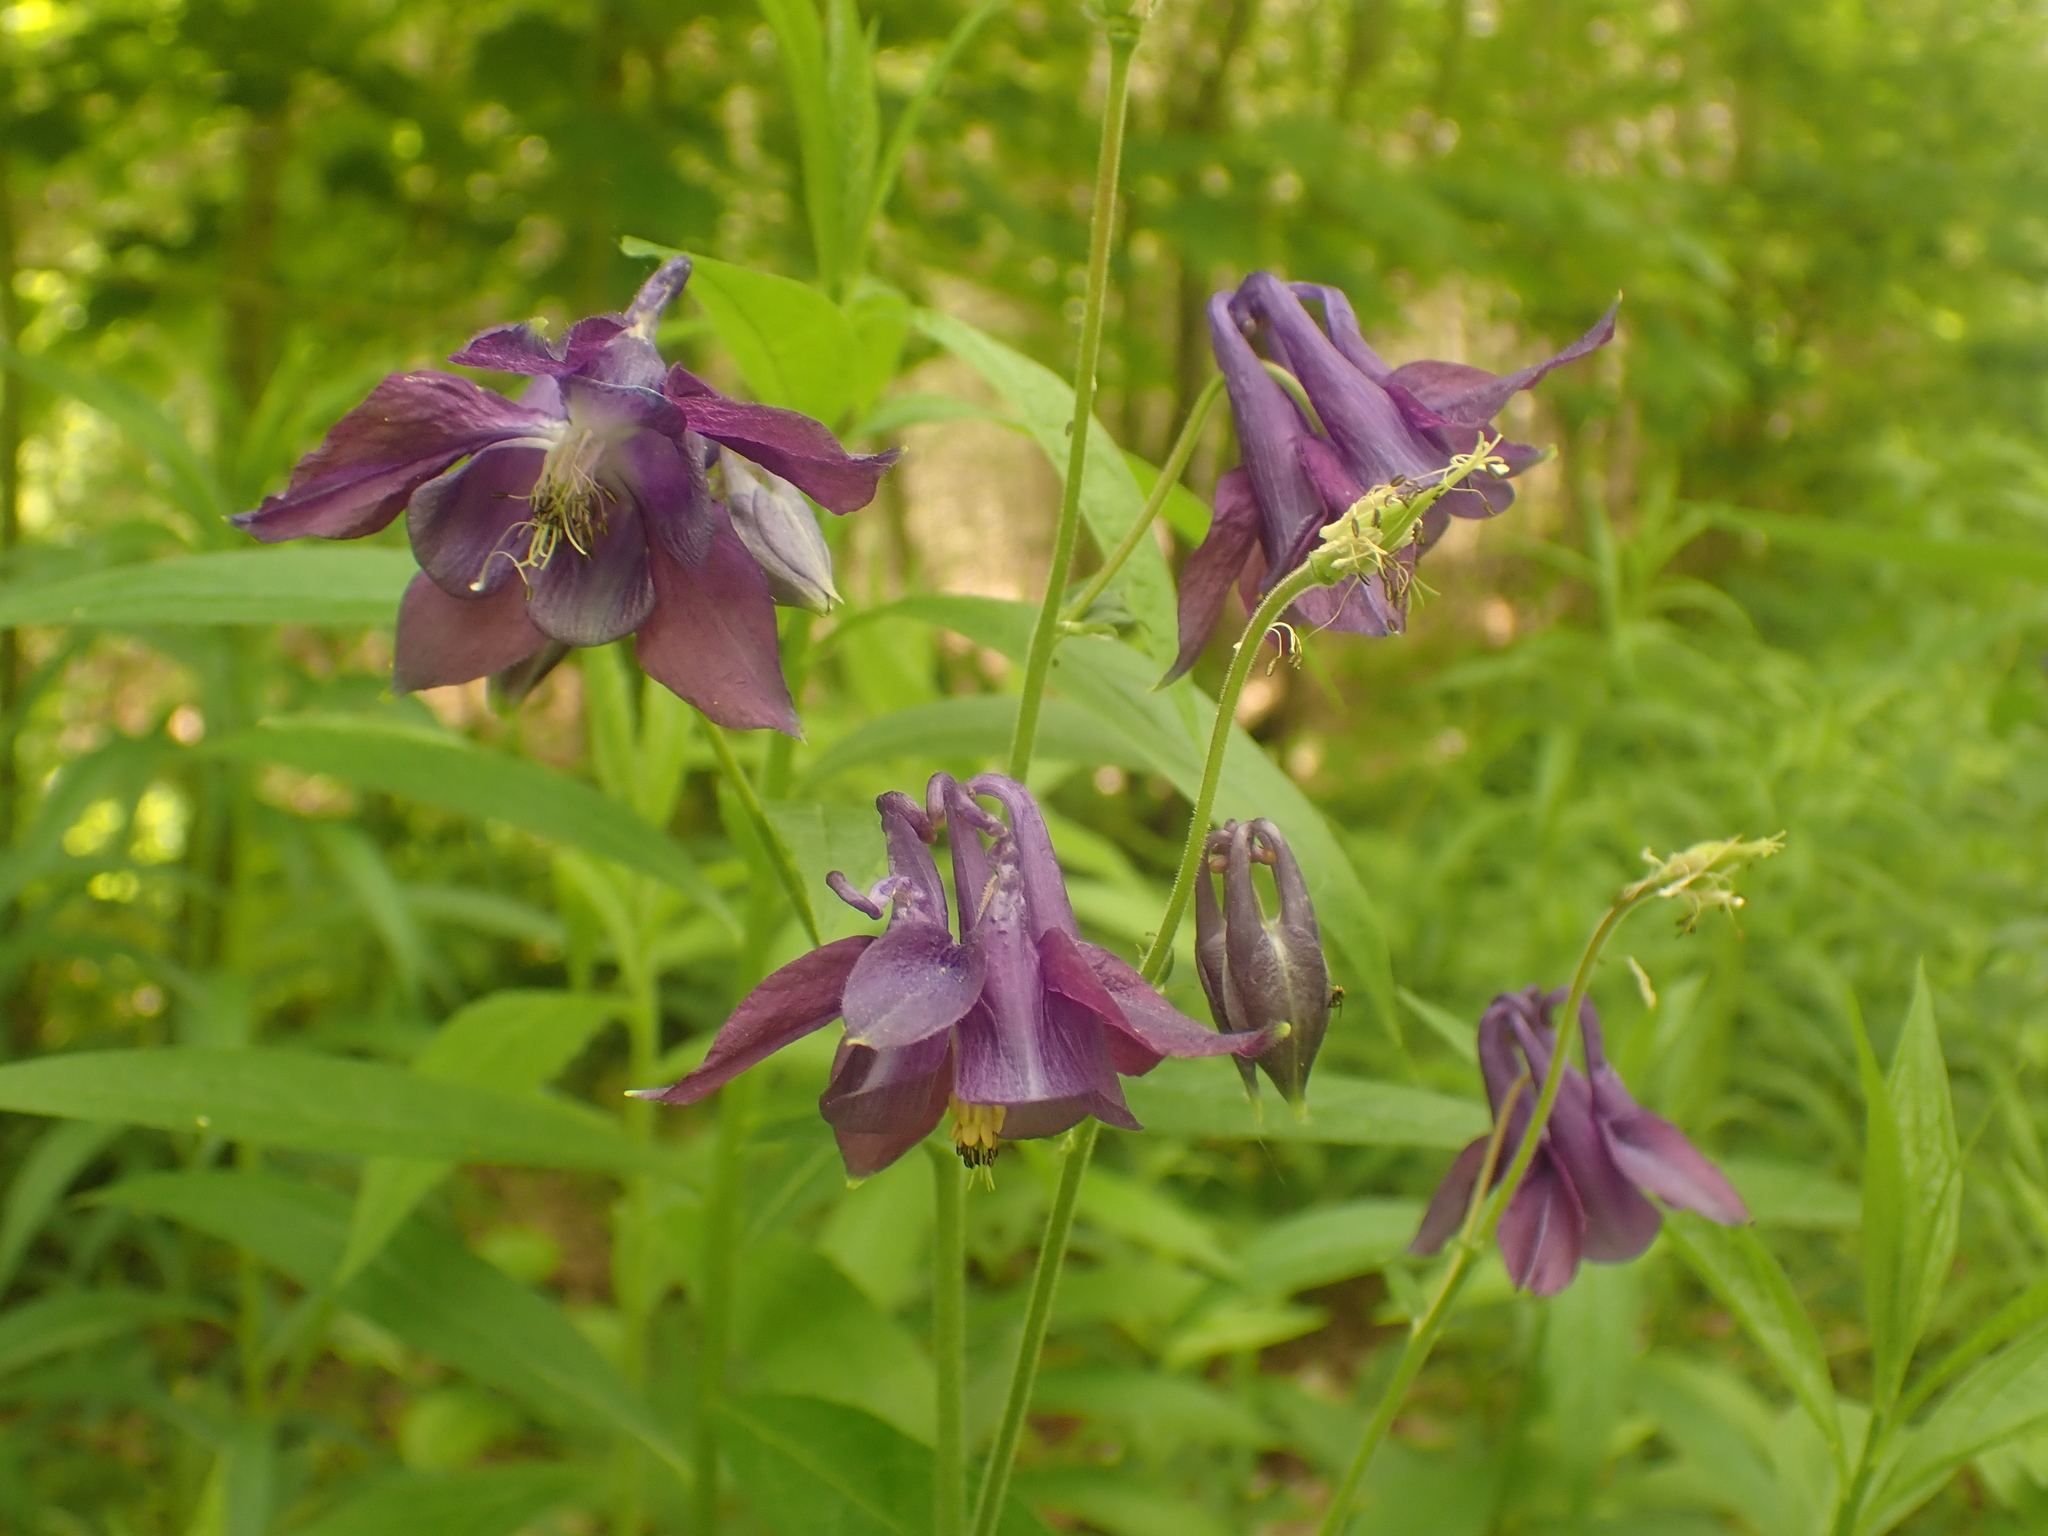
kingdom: Plantae
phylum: Tracheophyta
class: Magnoliopsida
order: Ranunculales
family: Ranunculaceae
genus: Aquilegia
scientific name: Aquilegia vulgaris
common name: Columbine
